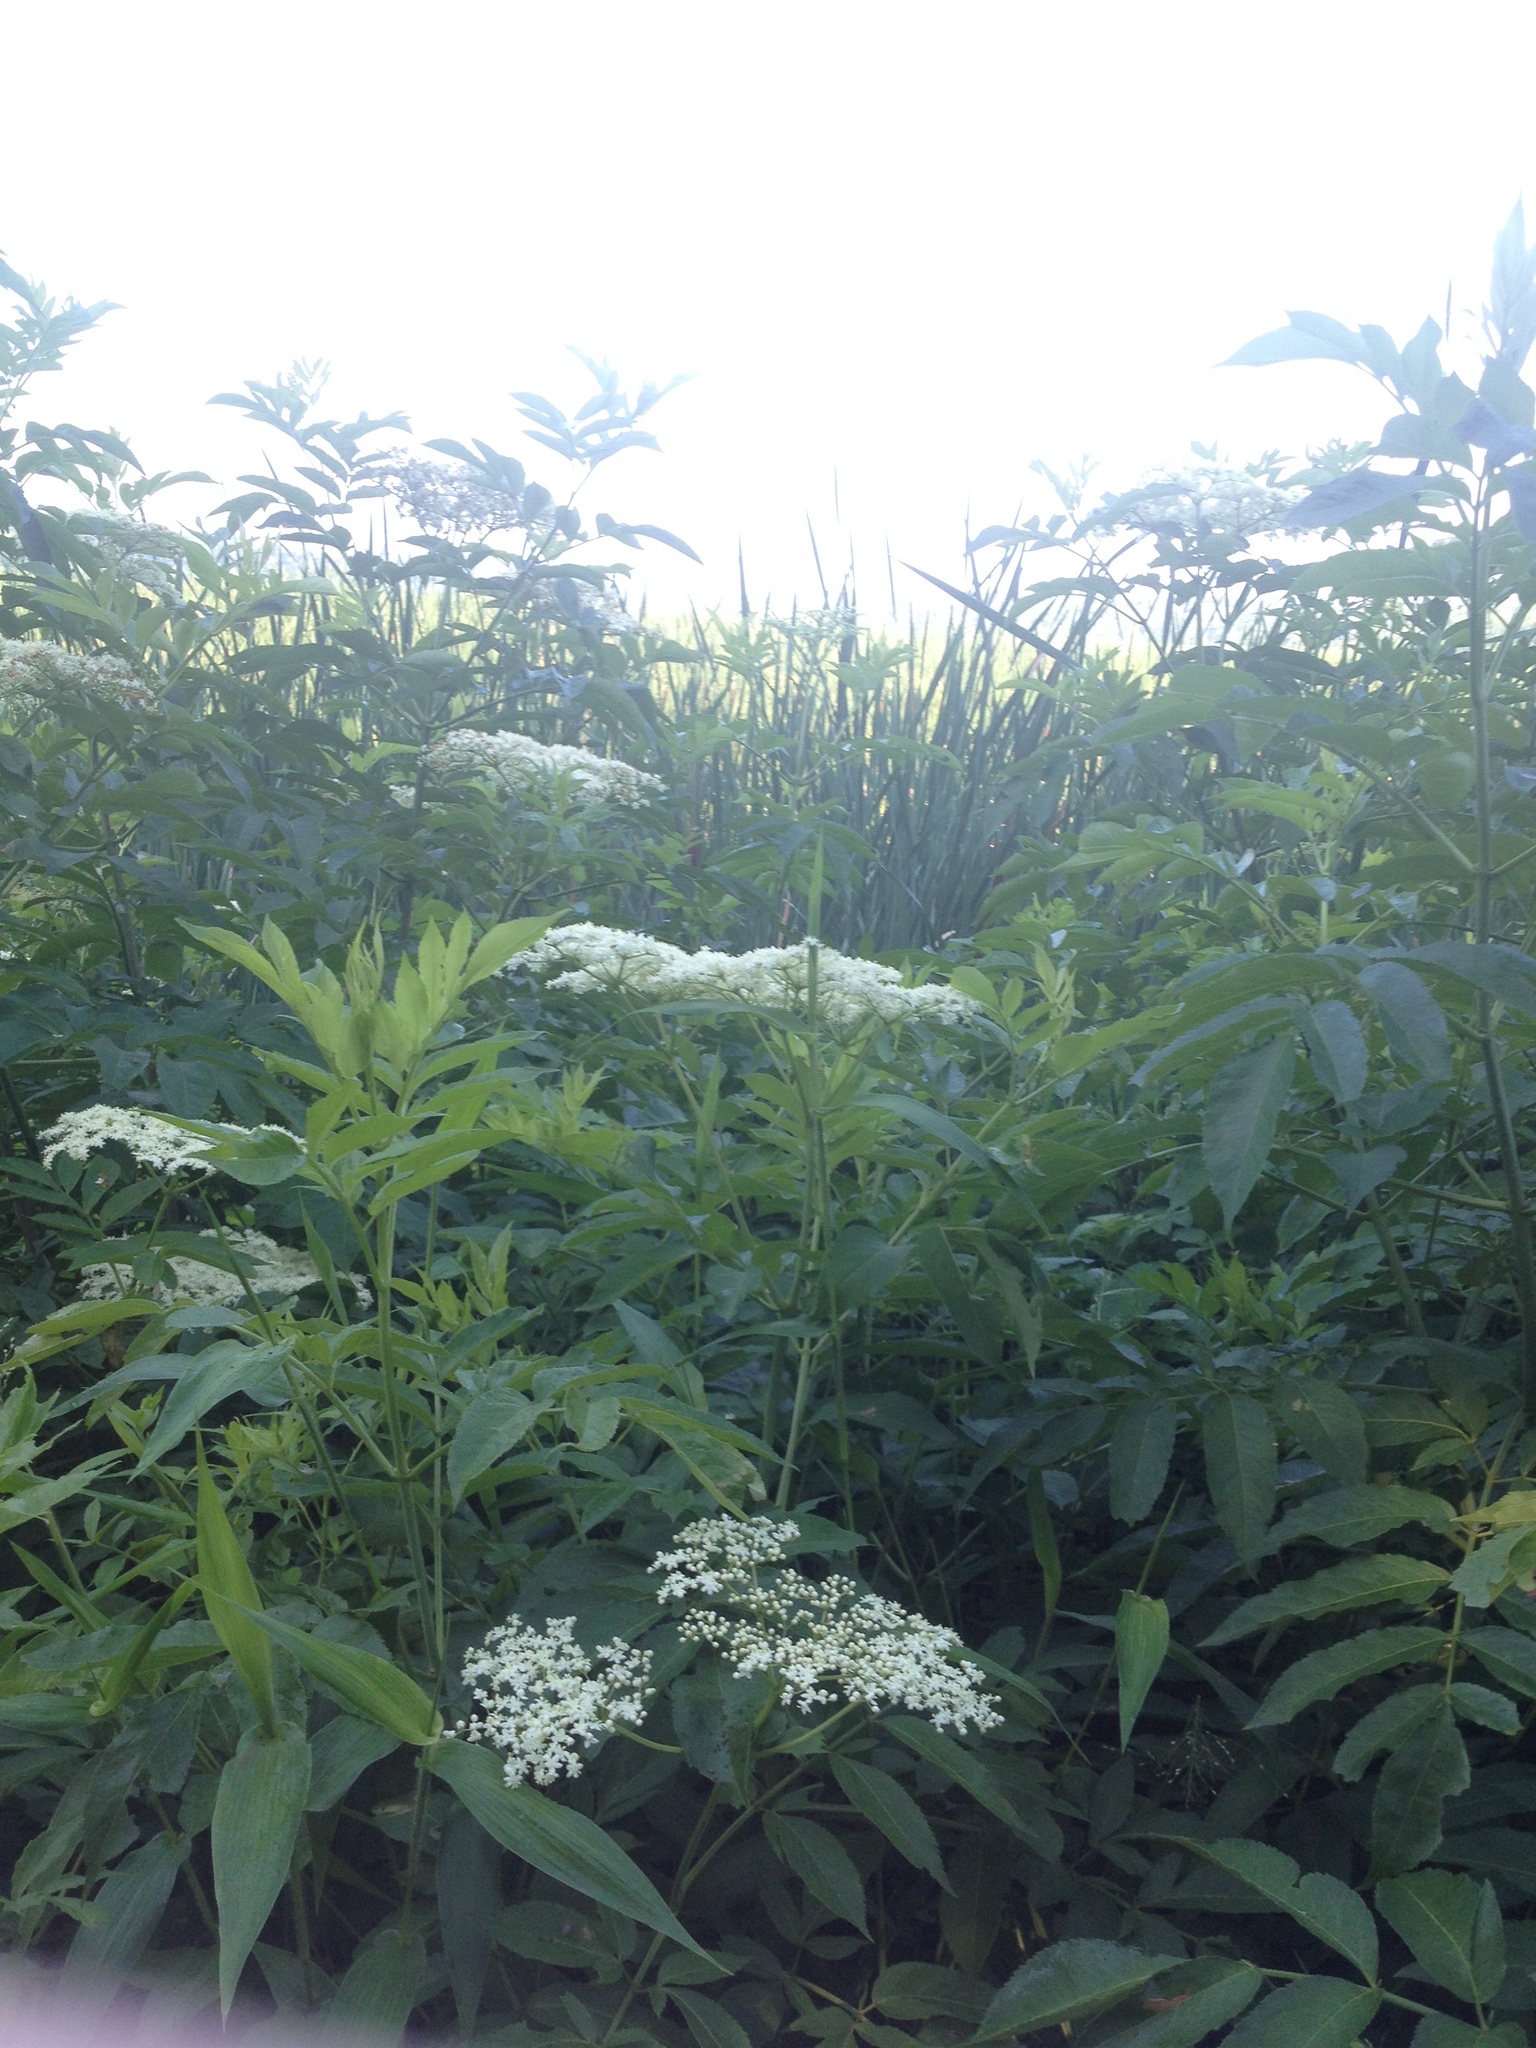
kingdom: Plantae
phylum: Tracheophyta
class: Magnoliopsida
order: Dipsacales
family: Viburnaceae
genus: Sambucus
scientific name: Sambucus canadensis
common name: American elder
